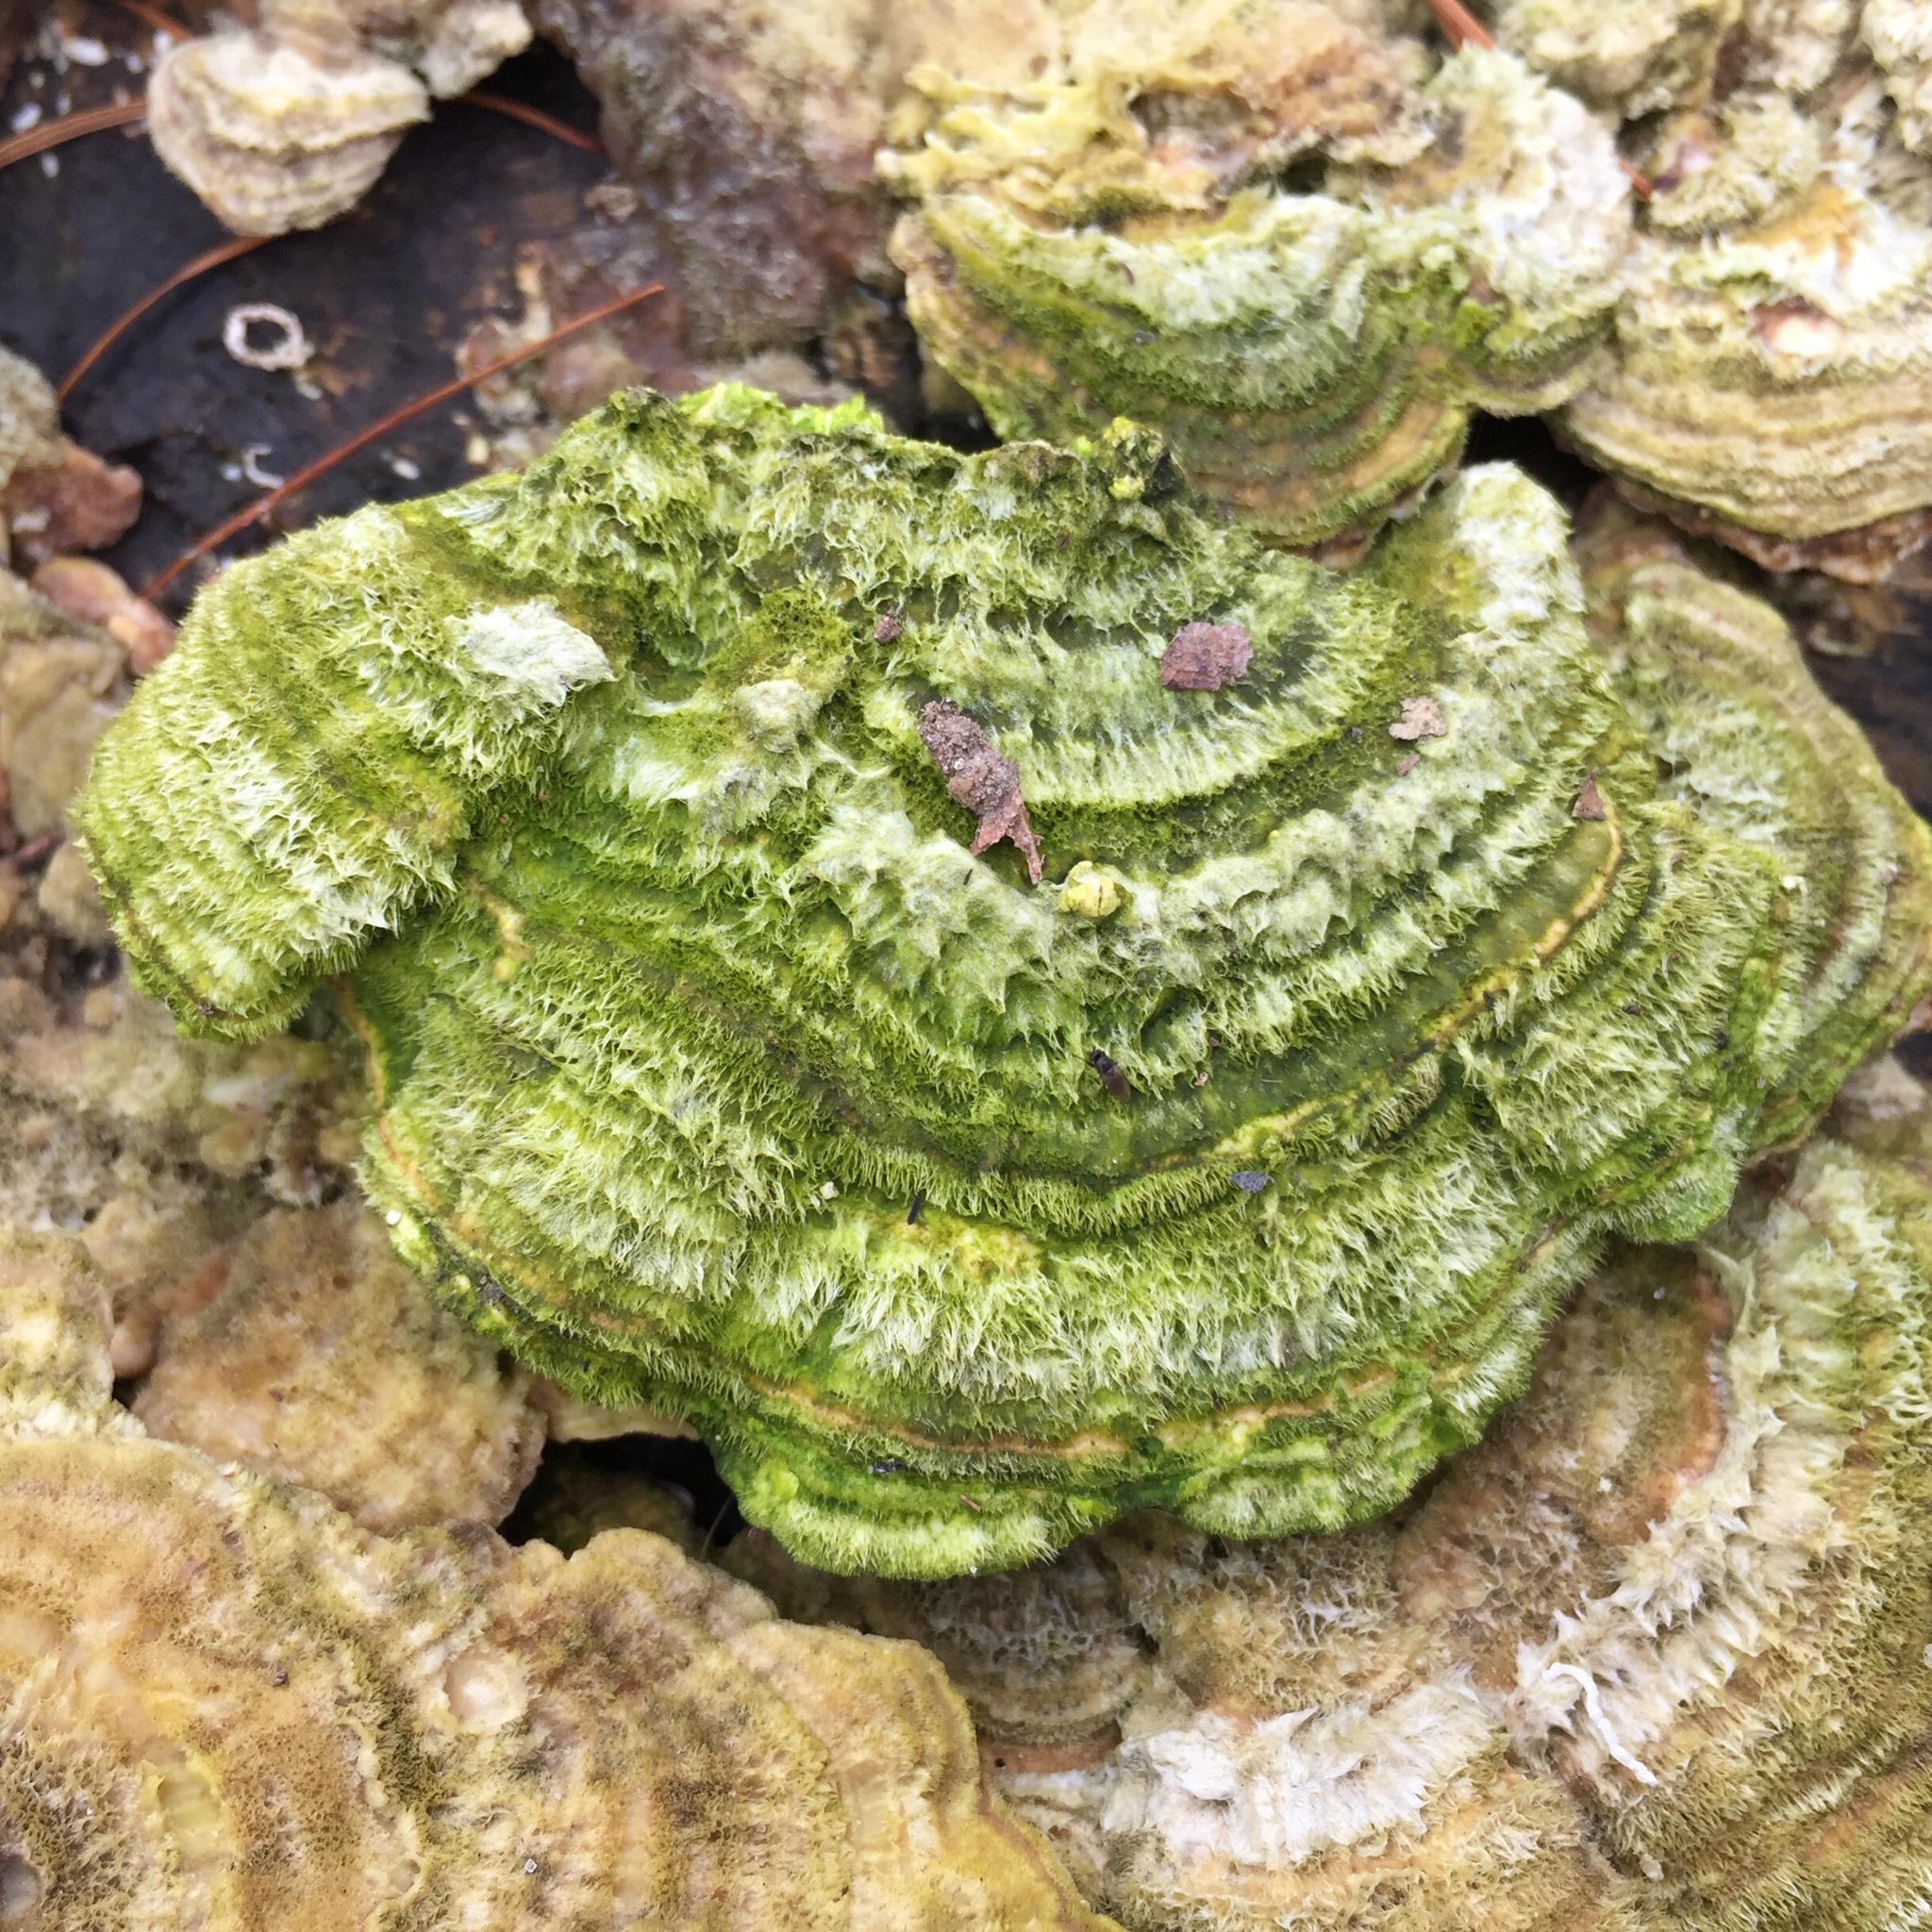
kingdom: Fungi
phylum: Basidiomycota
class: Agaricomycetes
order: Polyporales
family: Polyporaceae
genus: Trametes
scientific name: Trametes hirsuta
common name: Hairy bracket
